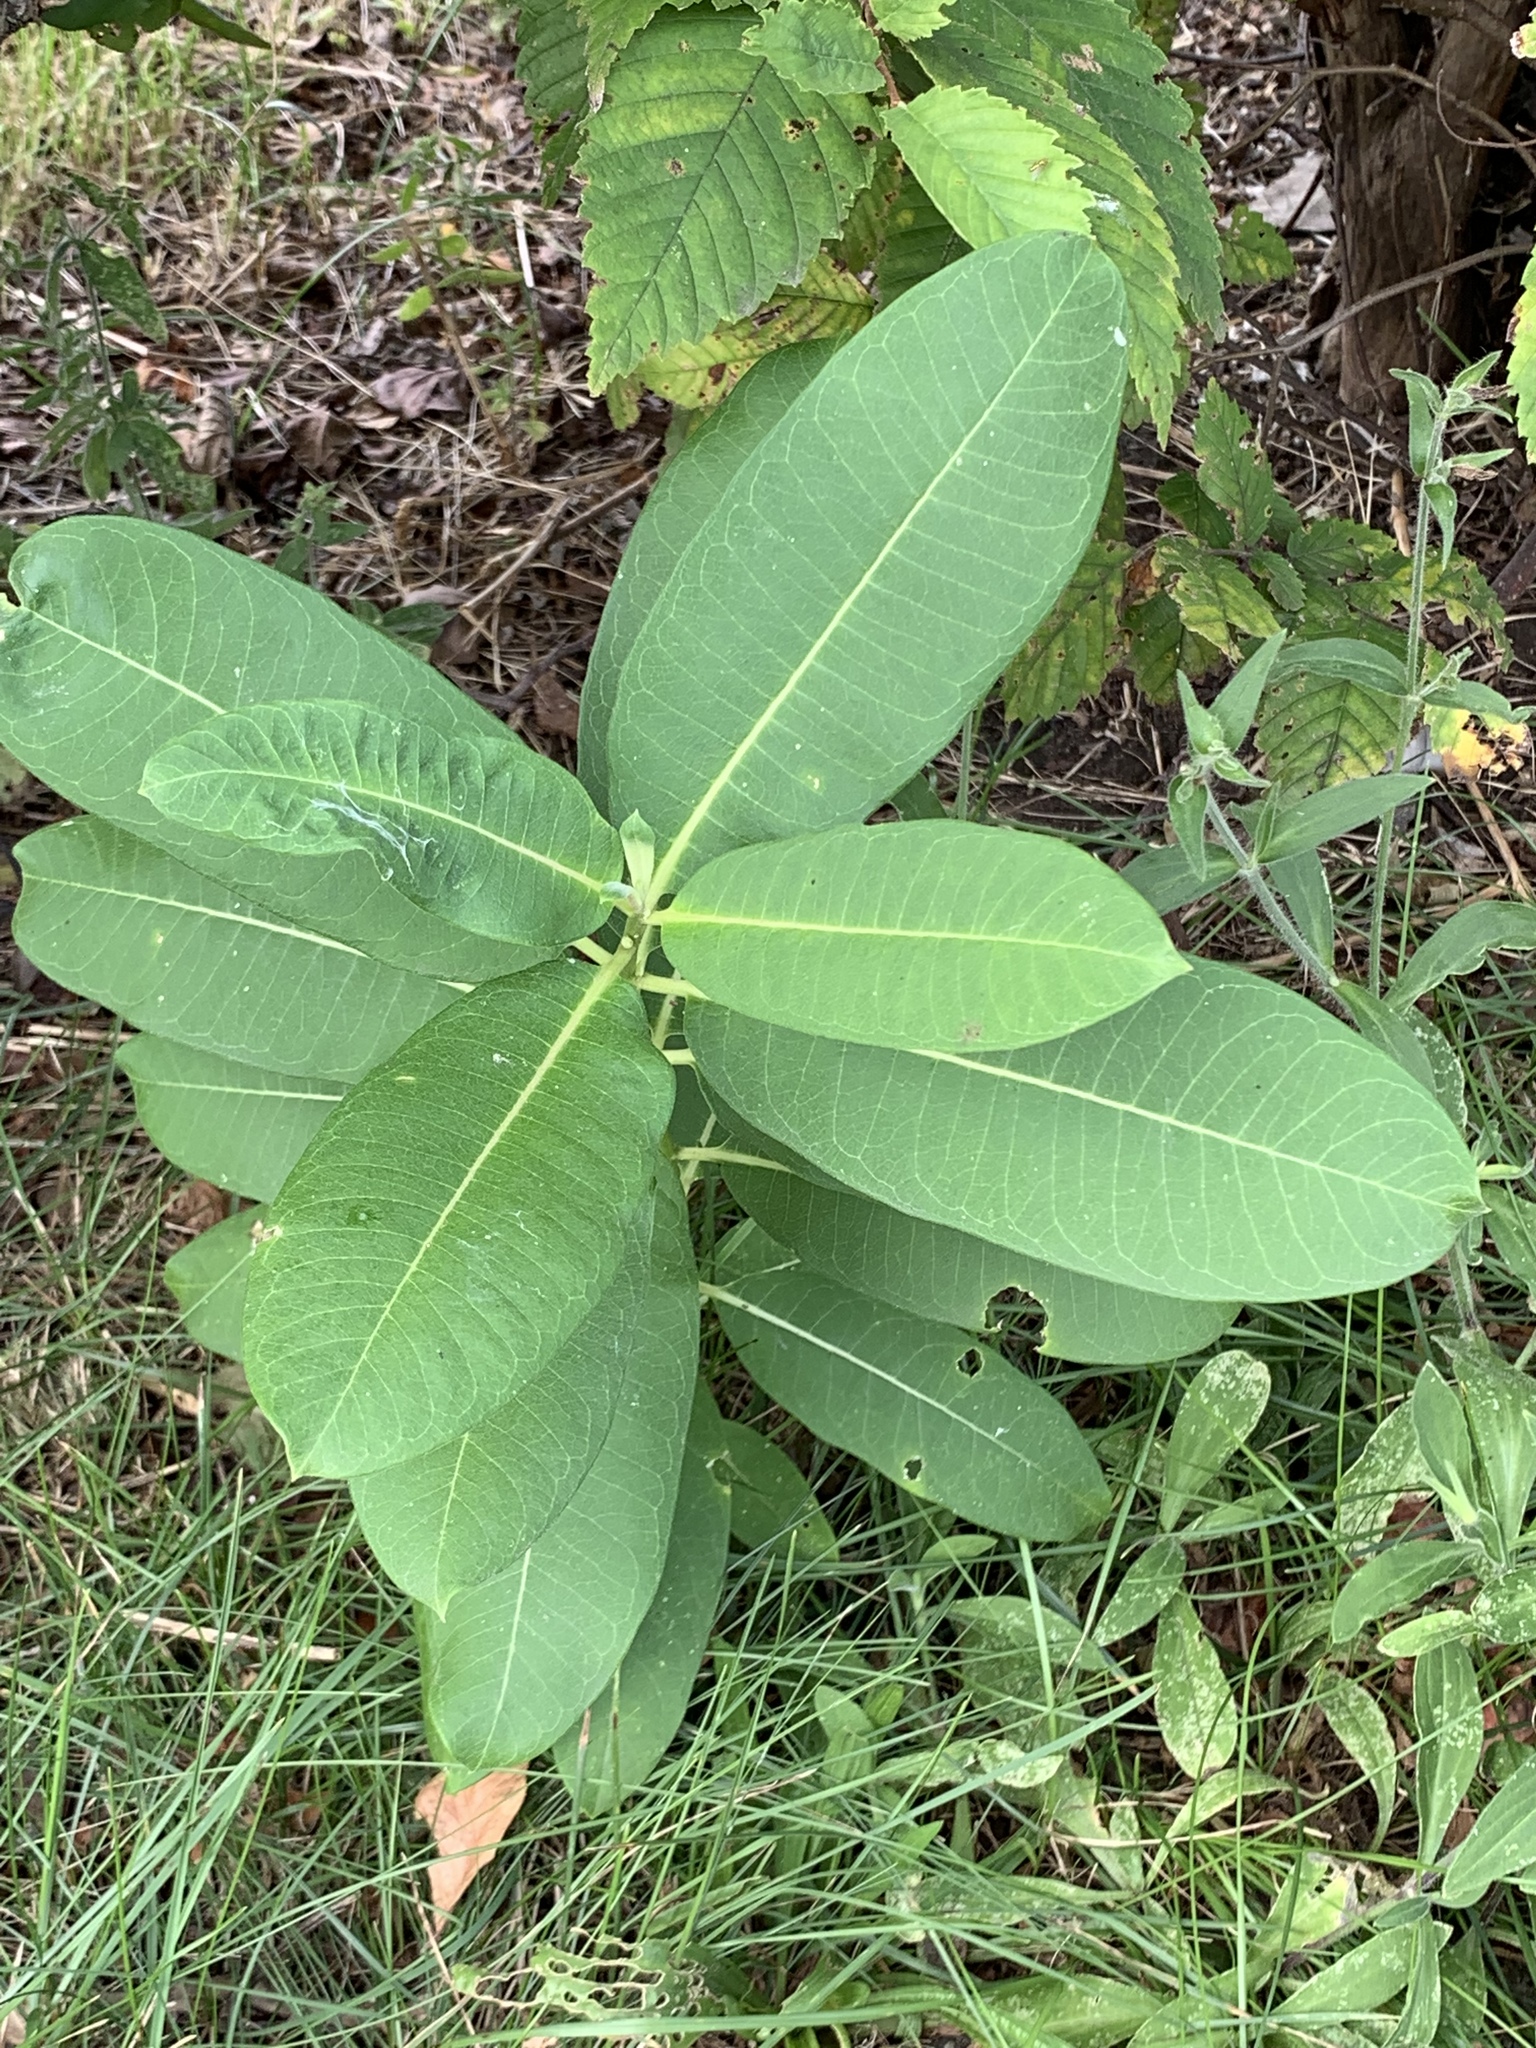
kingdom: Plantae
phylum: Tracheophyta
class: Magnoliopsida
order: Gentianales
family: Apocynaceae
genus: Asclepias
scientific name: Asclepias syriaca
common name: Common milkweed
